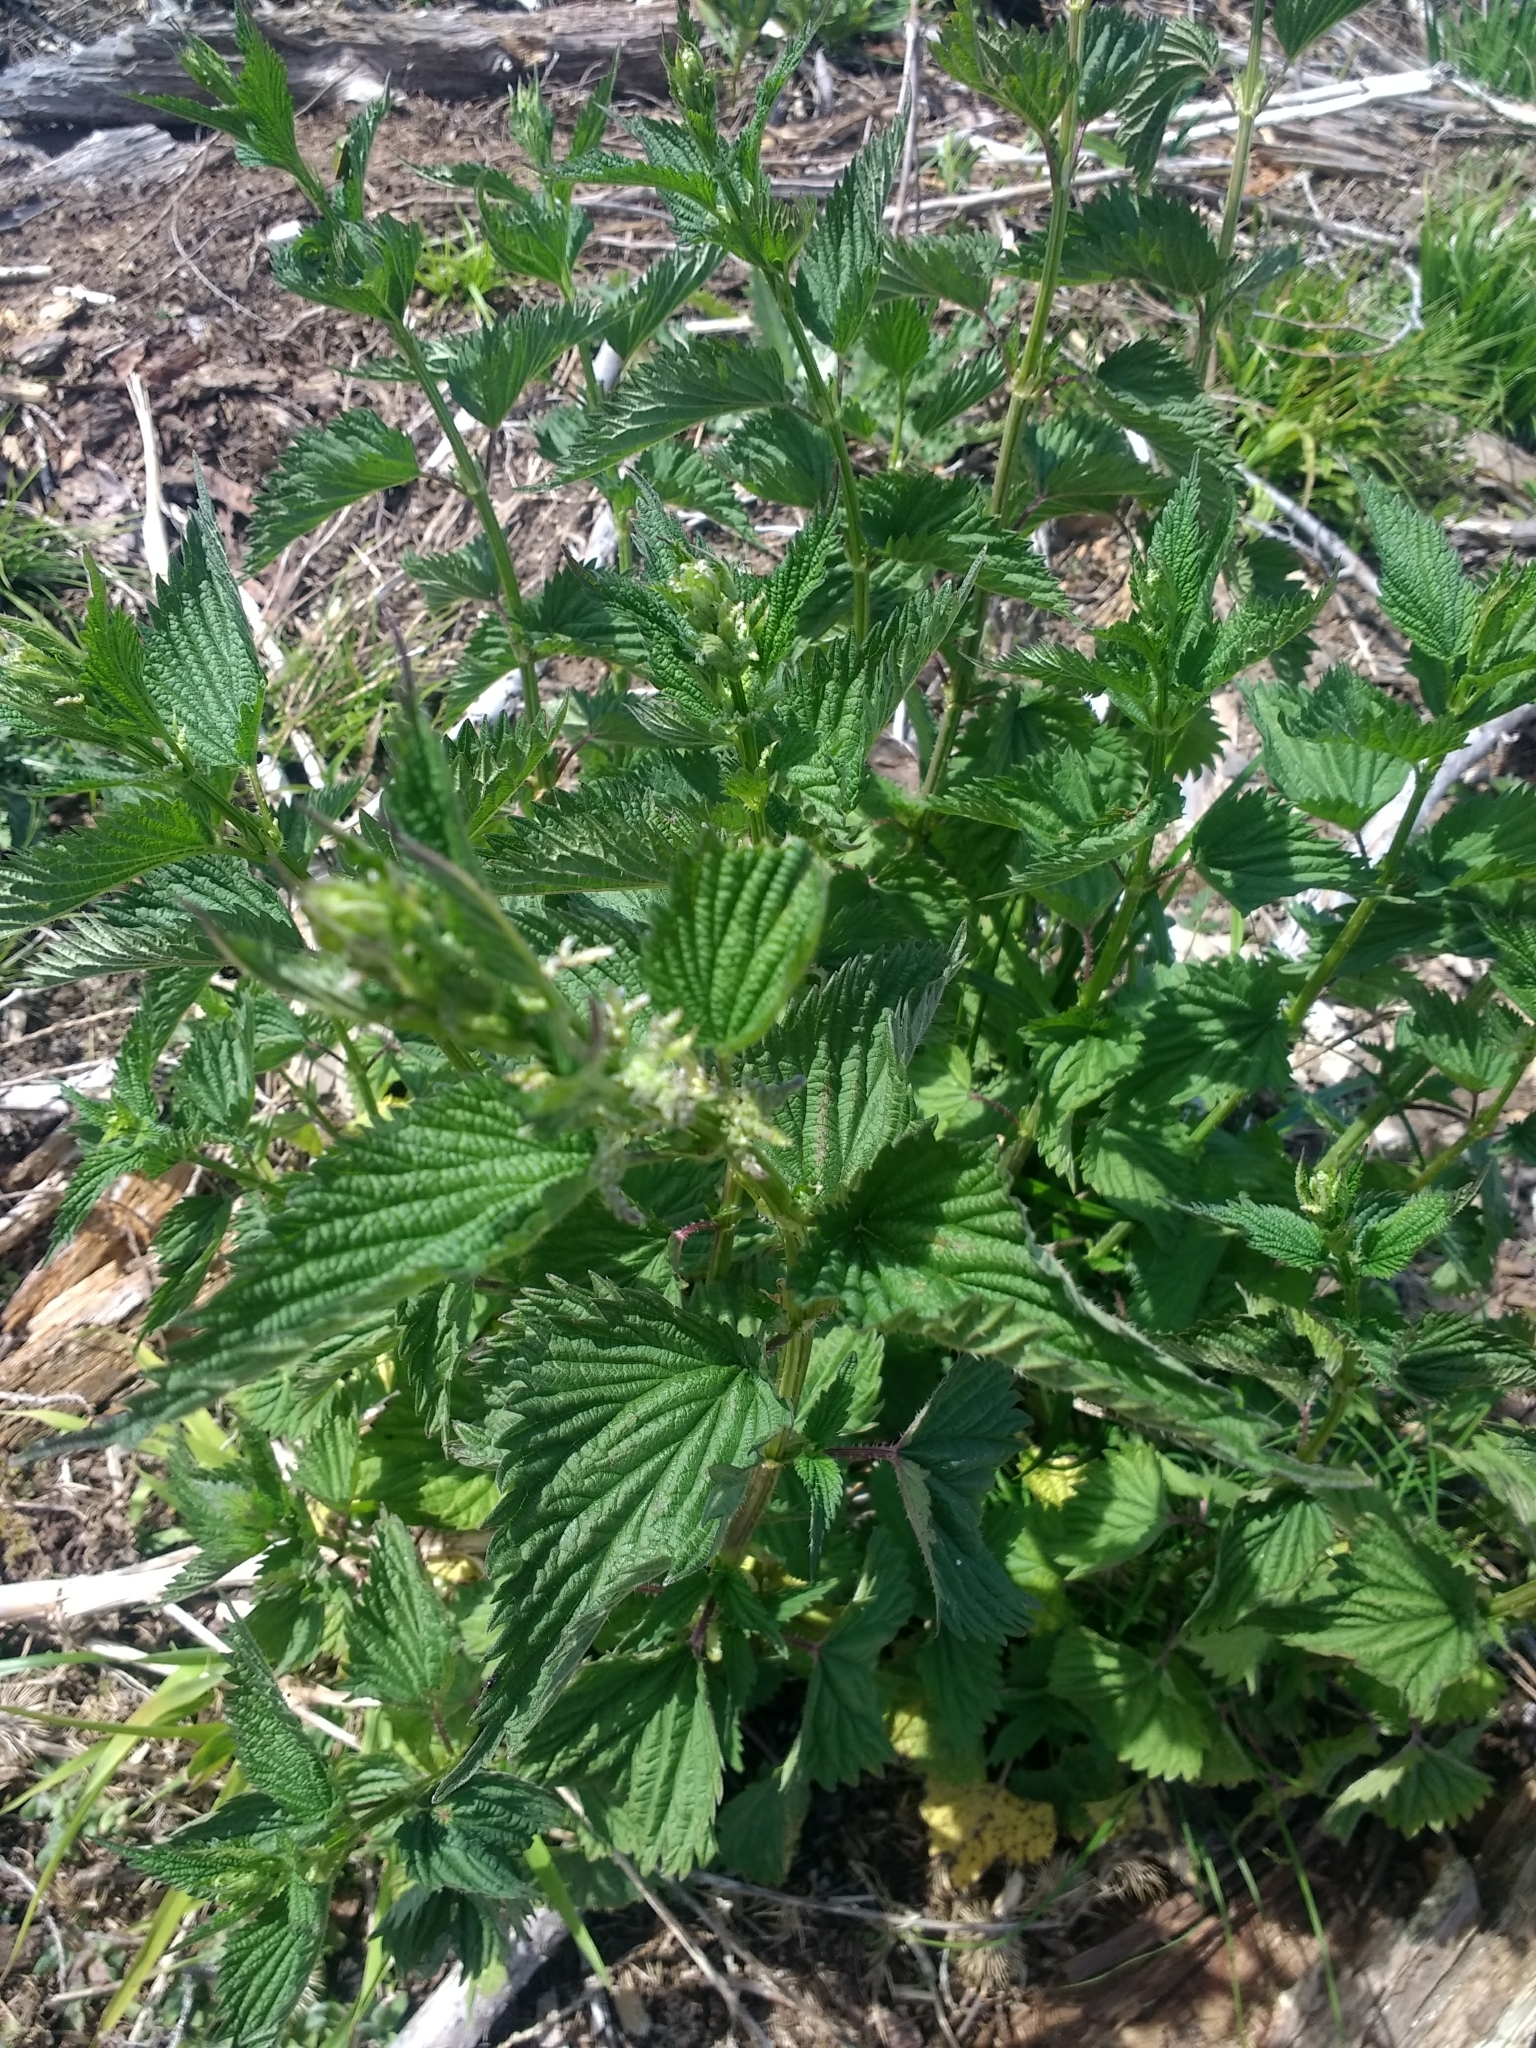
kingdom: Plantae
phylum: Tracheophyta
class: Magnoliopsida
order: Rosales
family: Urticaceae
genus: Urtica
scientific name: Urtica dioica
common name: Common nettle
